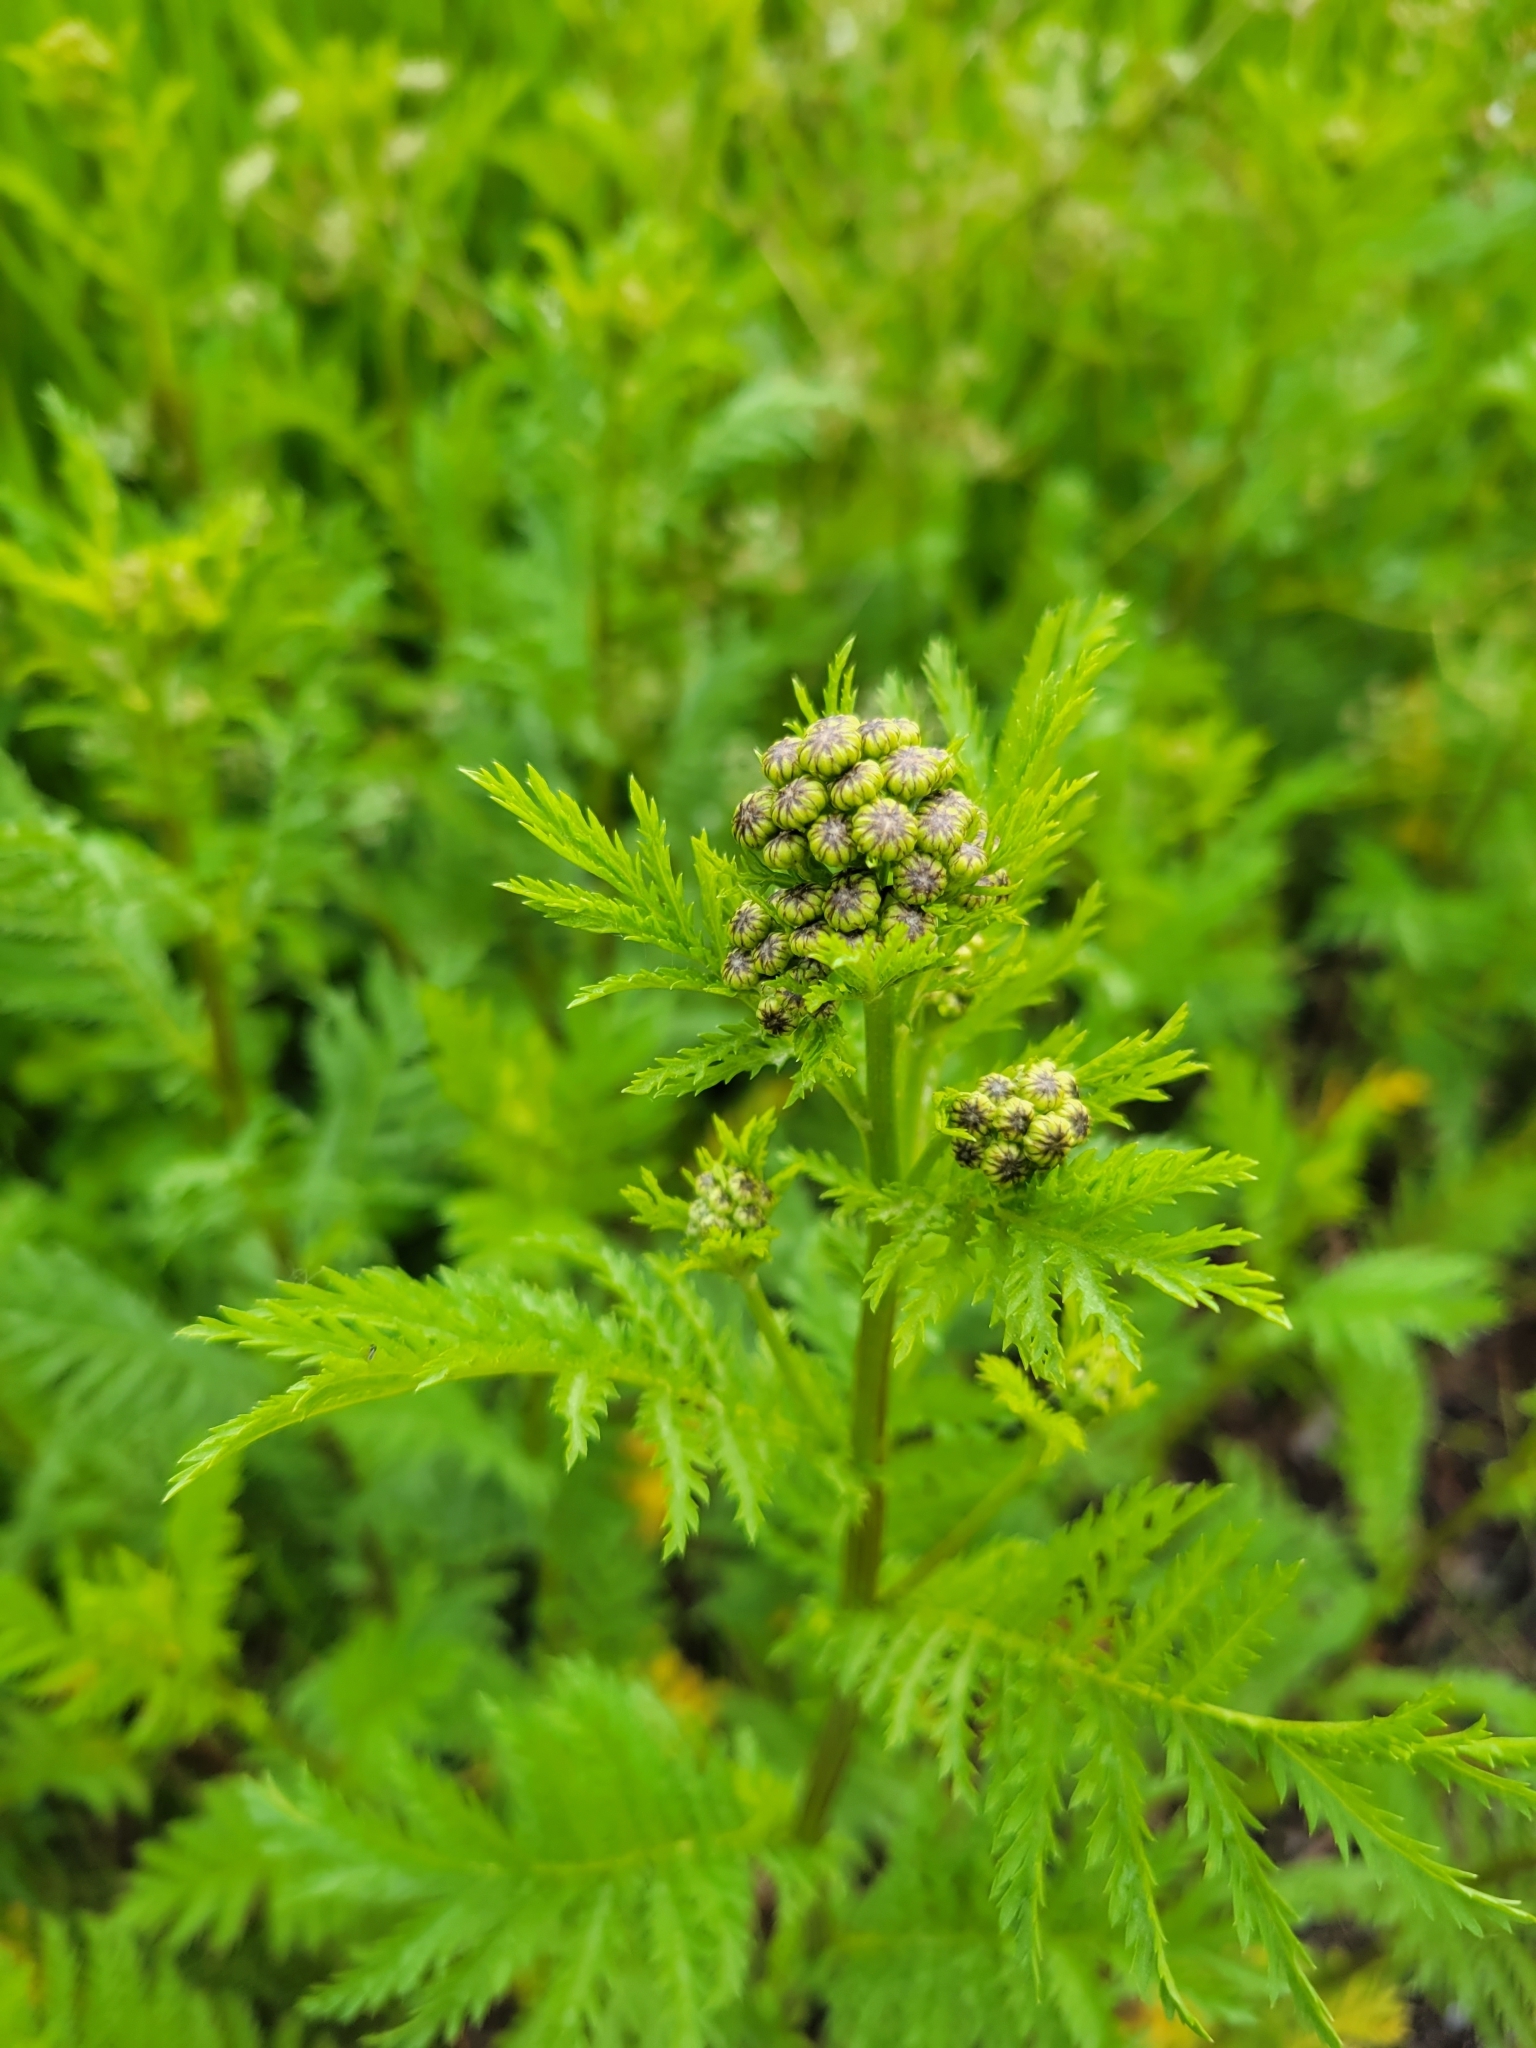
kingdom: Plantae
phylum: Tracheophyta
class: Magnoliopsida
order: Asterales
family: Asteraceae
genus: Tanacetum
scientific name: Tanacetum vulgare
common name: Common tansy
